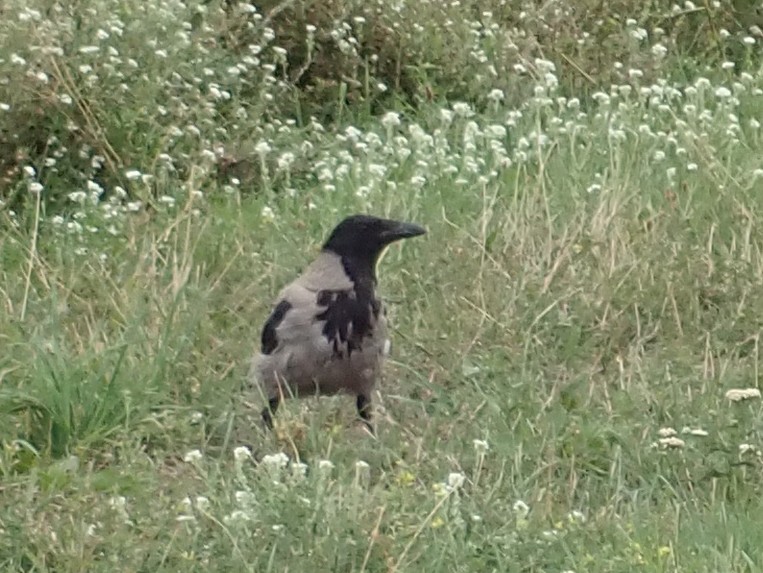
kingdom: Animalia
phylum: Chordata
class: Aves
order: Passeriformes
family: Corvidae
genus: Corvus
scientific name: Corvus cornix
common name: Hooded crow
